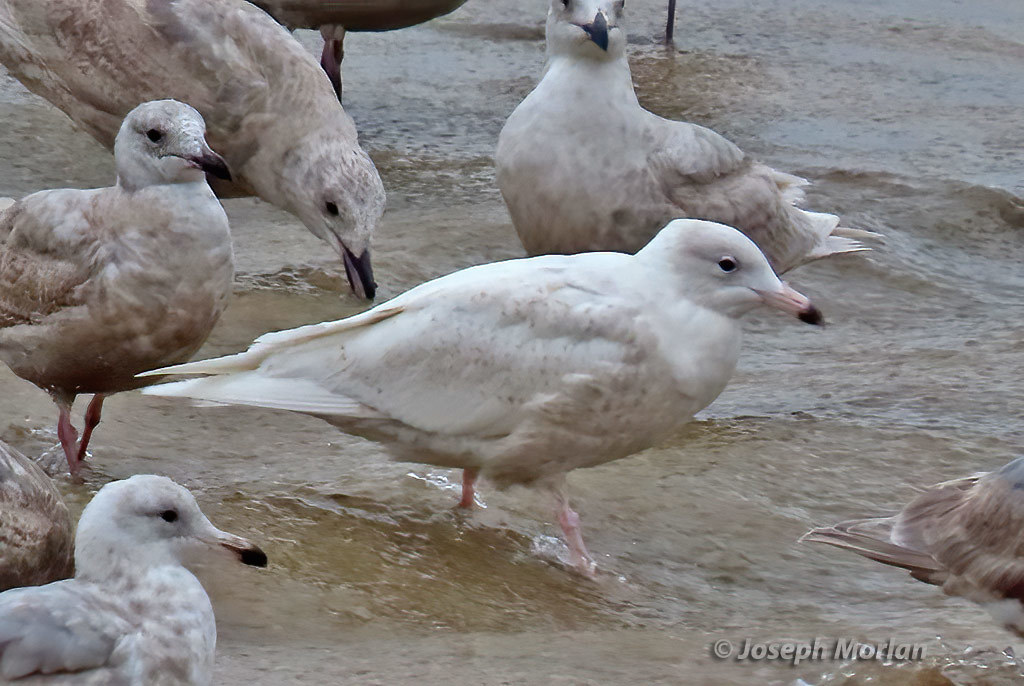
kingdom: Animalia
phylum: Chordata
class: Aves
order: Charadriiformes
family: Laridae
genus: Larus
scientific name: Larus hyperboreus
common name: Glaucous gull
